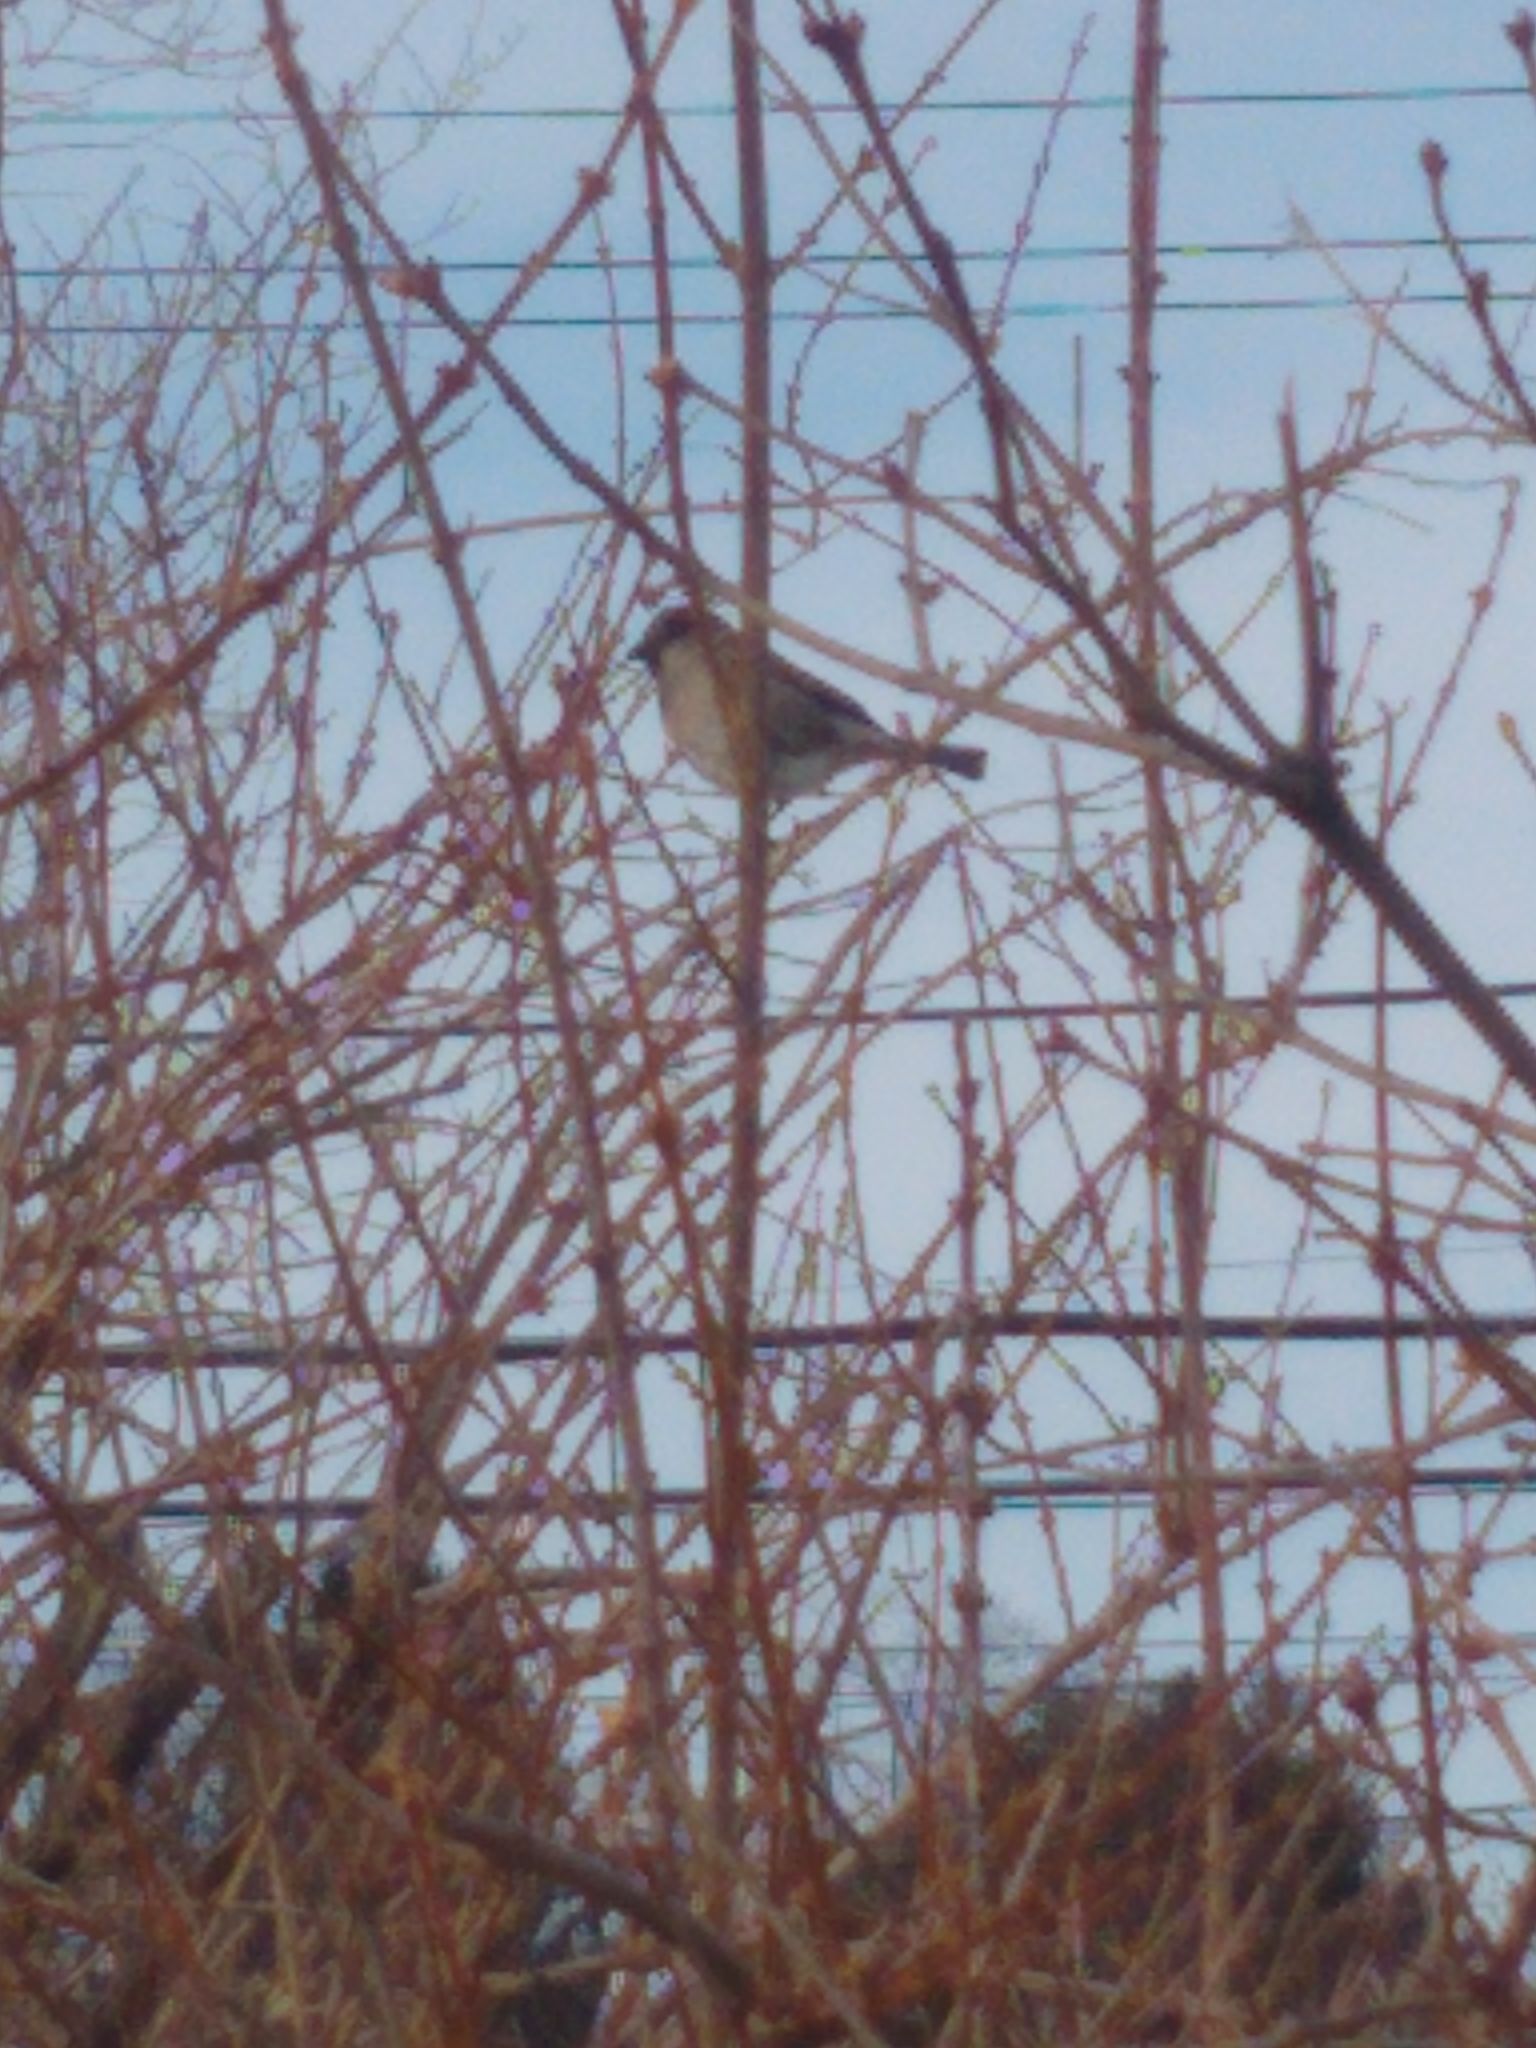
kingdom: Animalia
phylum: Chordata
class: Aves
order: Passeriformes
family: Passeridae
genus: Passer
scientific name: Passer domesticus
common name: House sparrow
